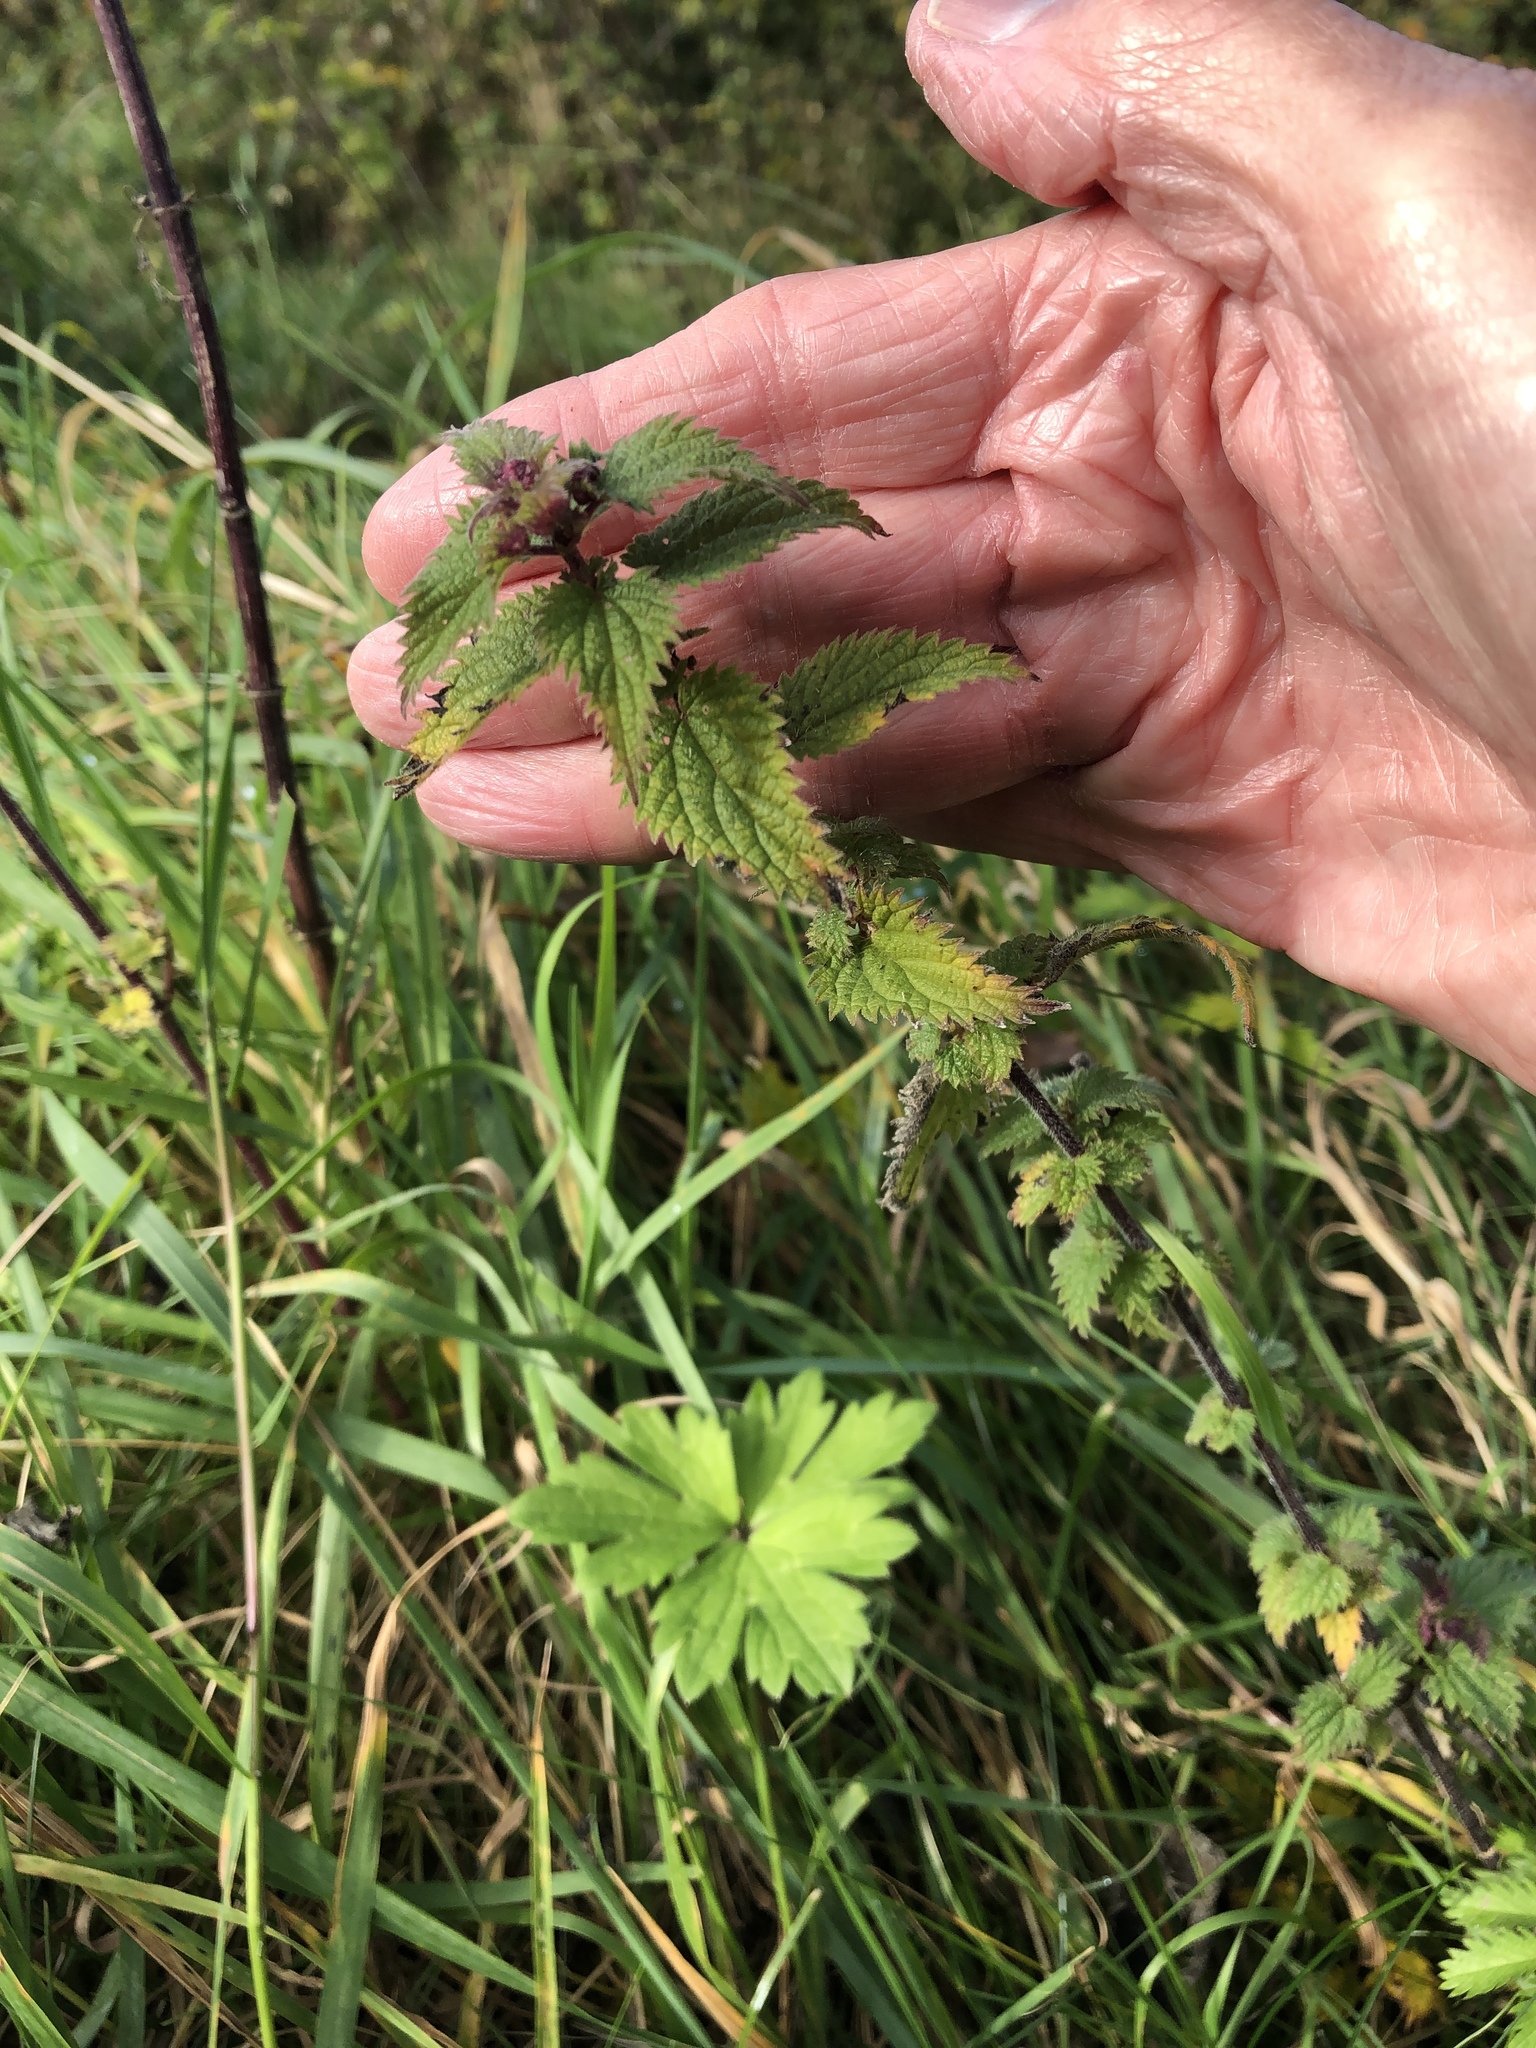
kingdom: Plantae
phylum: Tracheophyta
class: Magnoliopsida
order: Rosales
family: Urticaceae
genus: Urtica
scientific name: Urtica dioica
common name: Common nettle
